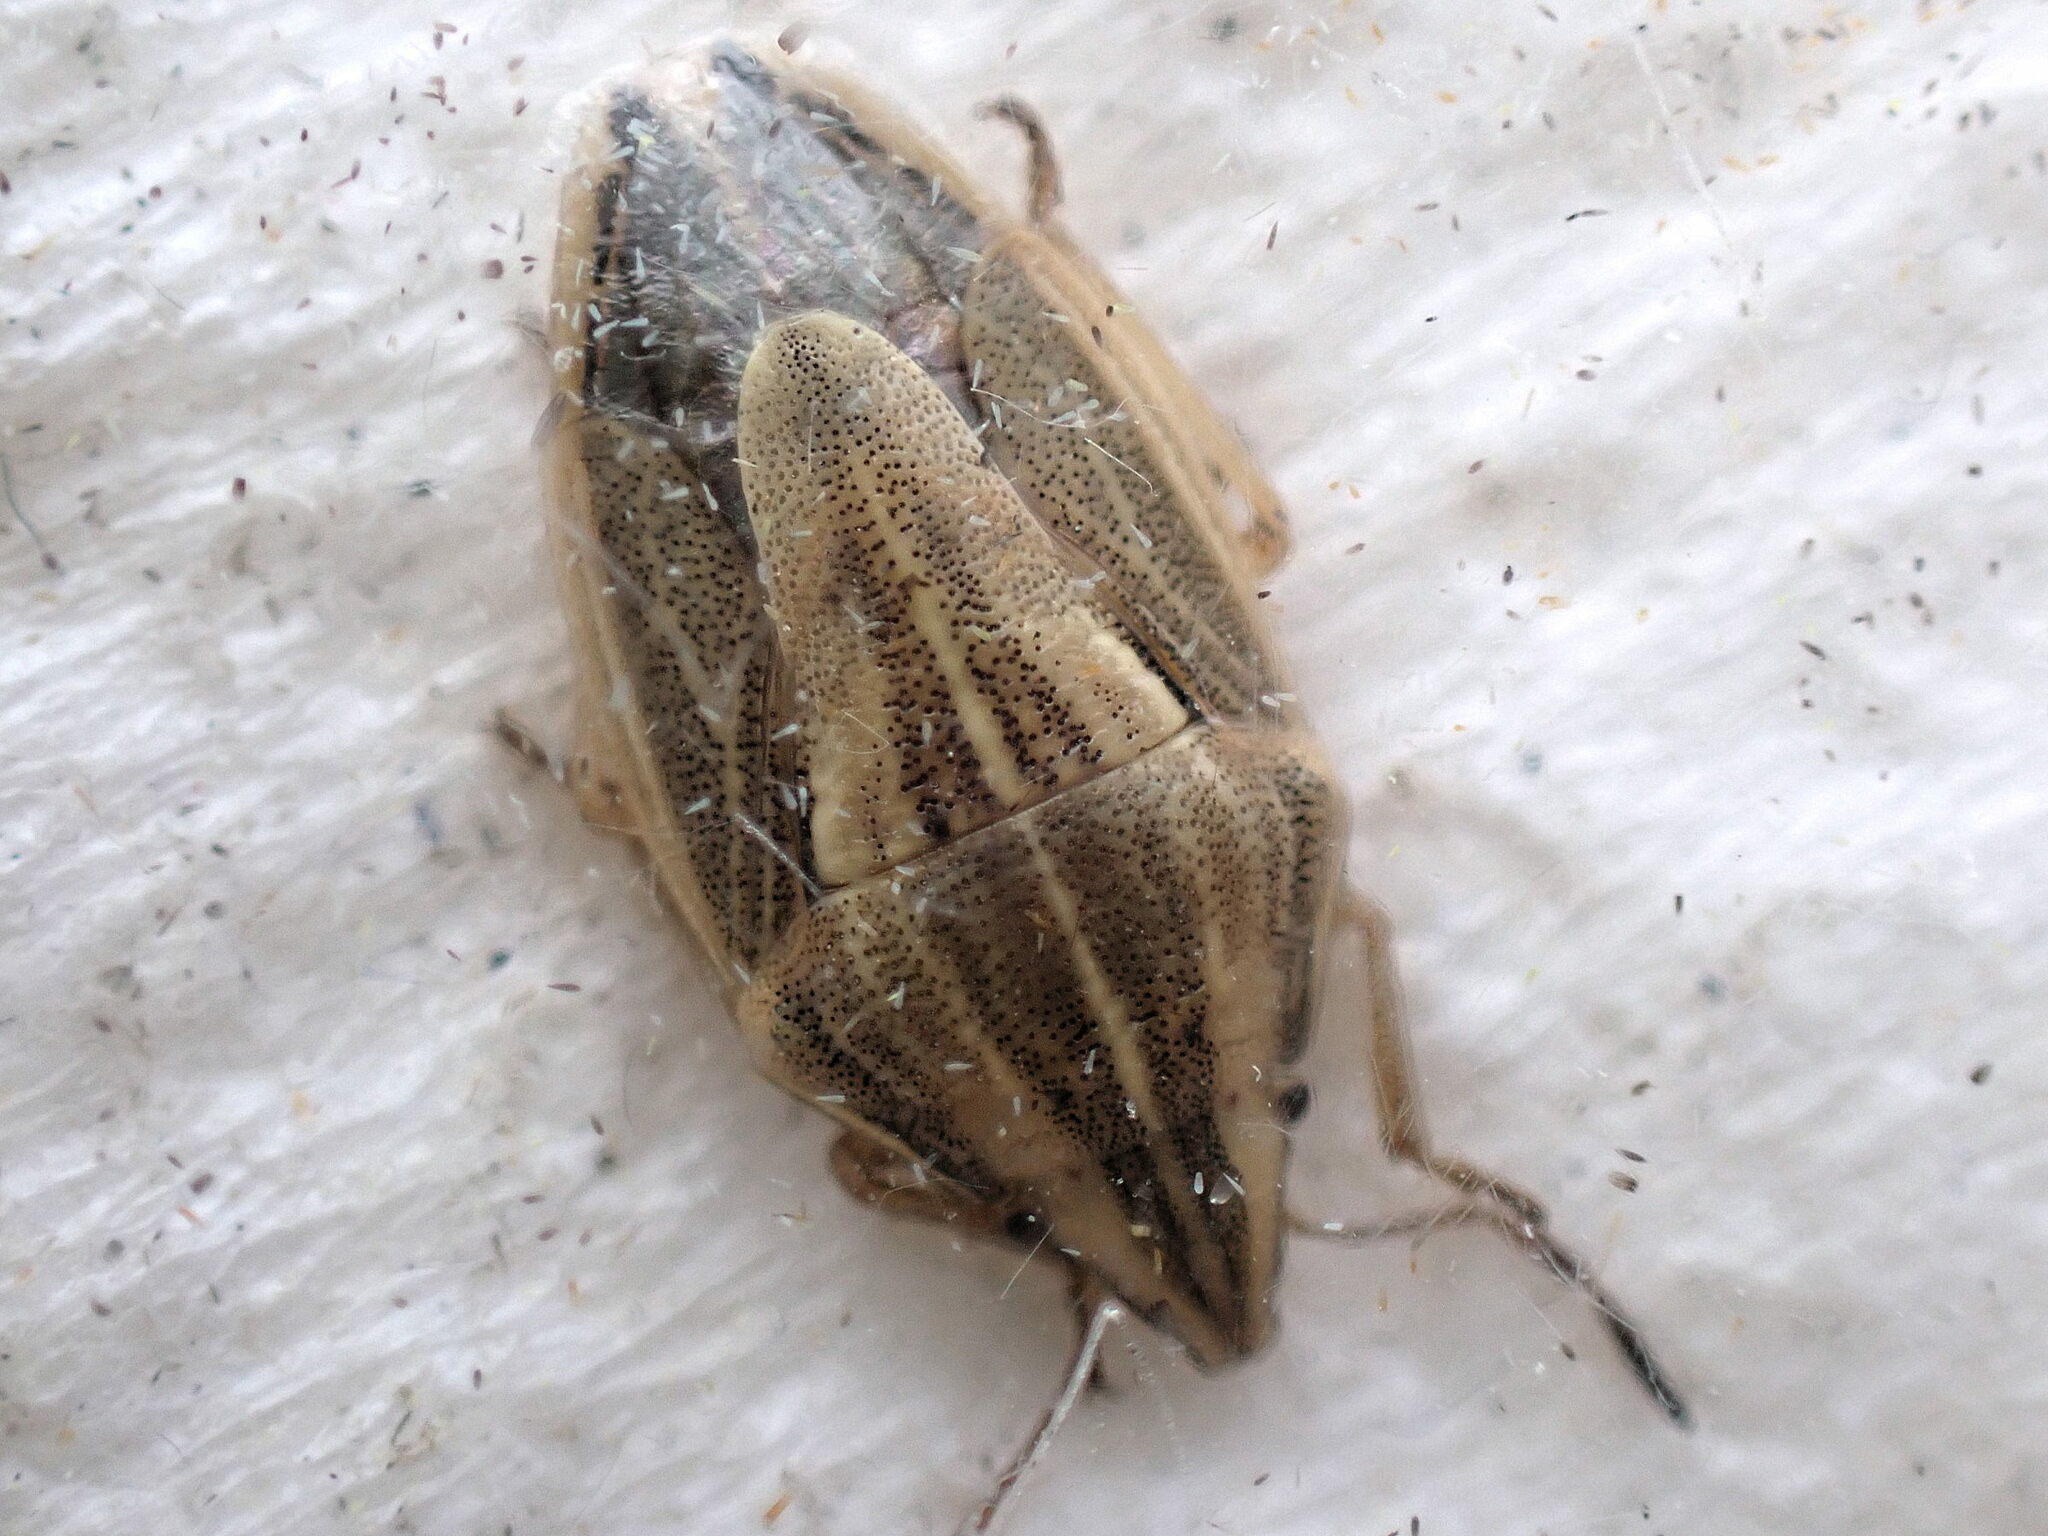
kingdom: Animalia
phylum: Arthropoda
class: Insecta
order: Hemiptera
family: Pentatomidae
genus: Aelia
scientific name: Aelia acuminata
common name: Bishop's mitre
